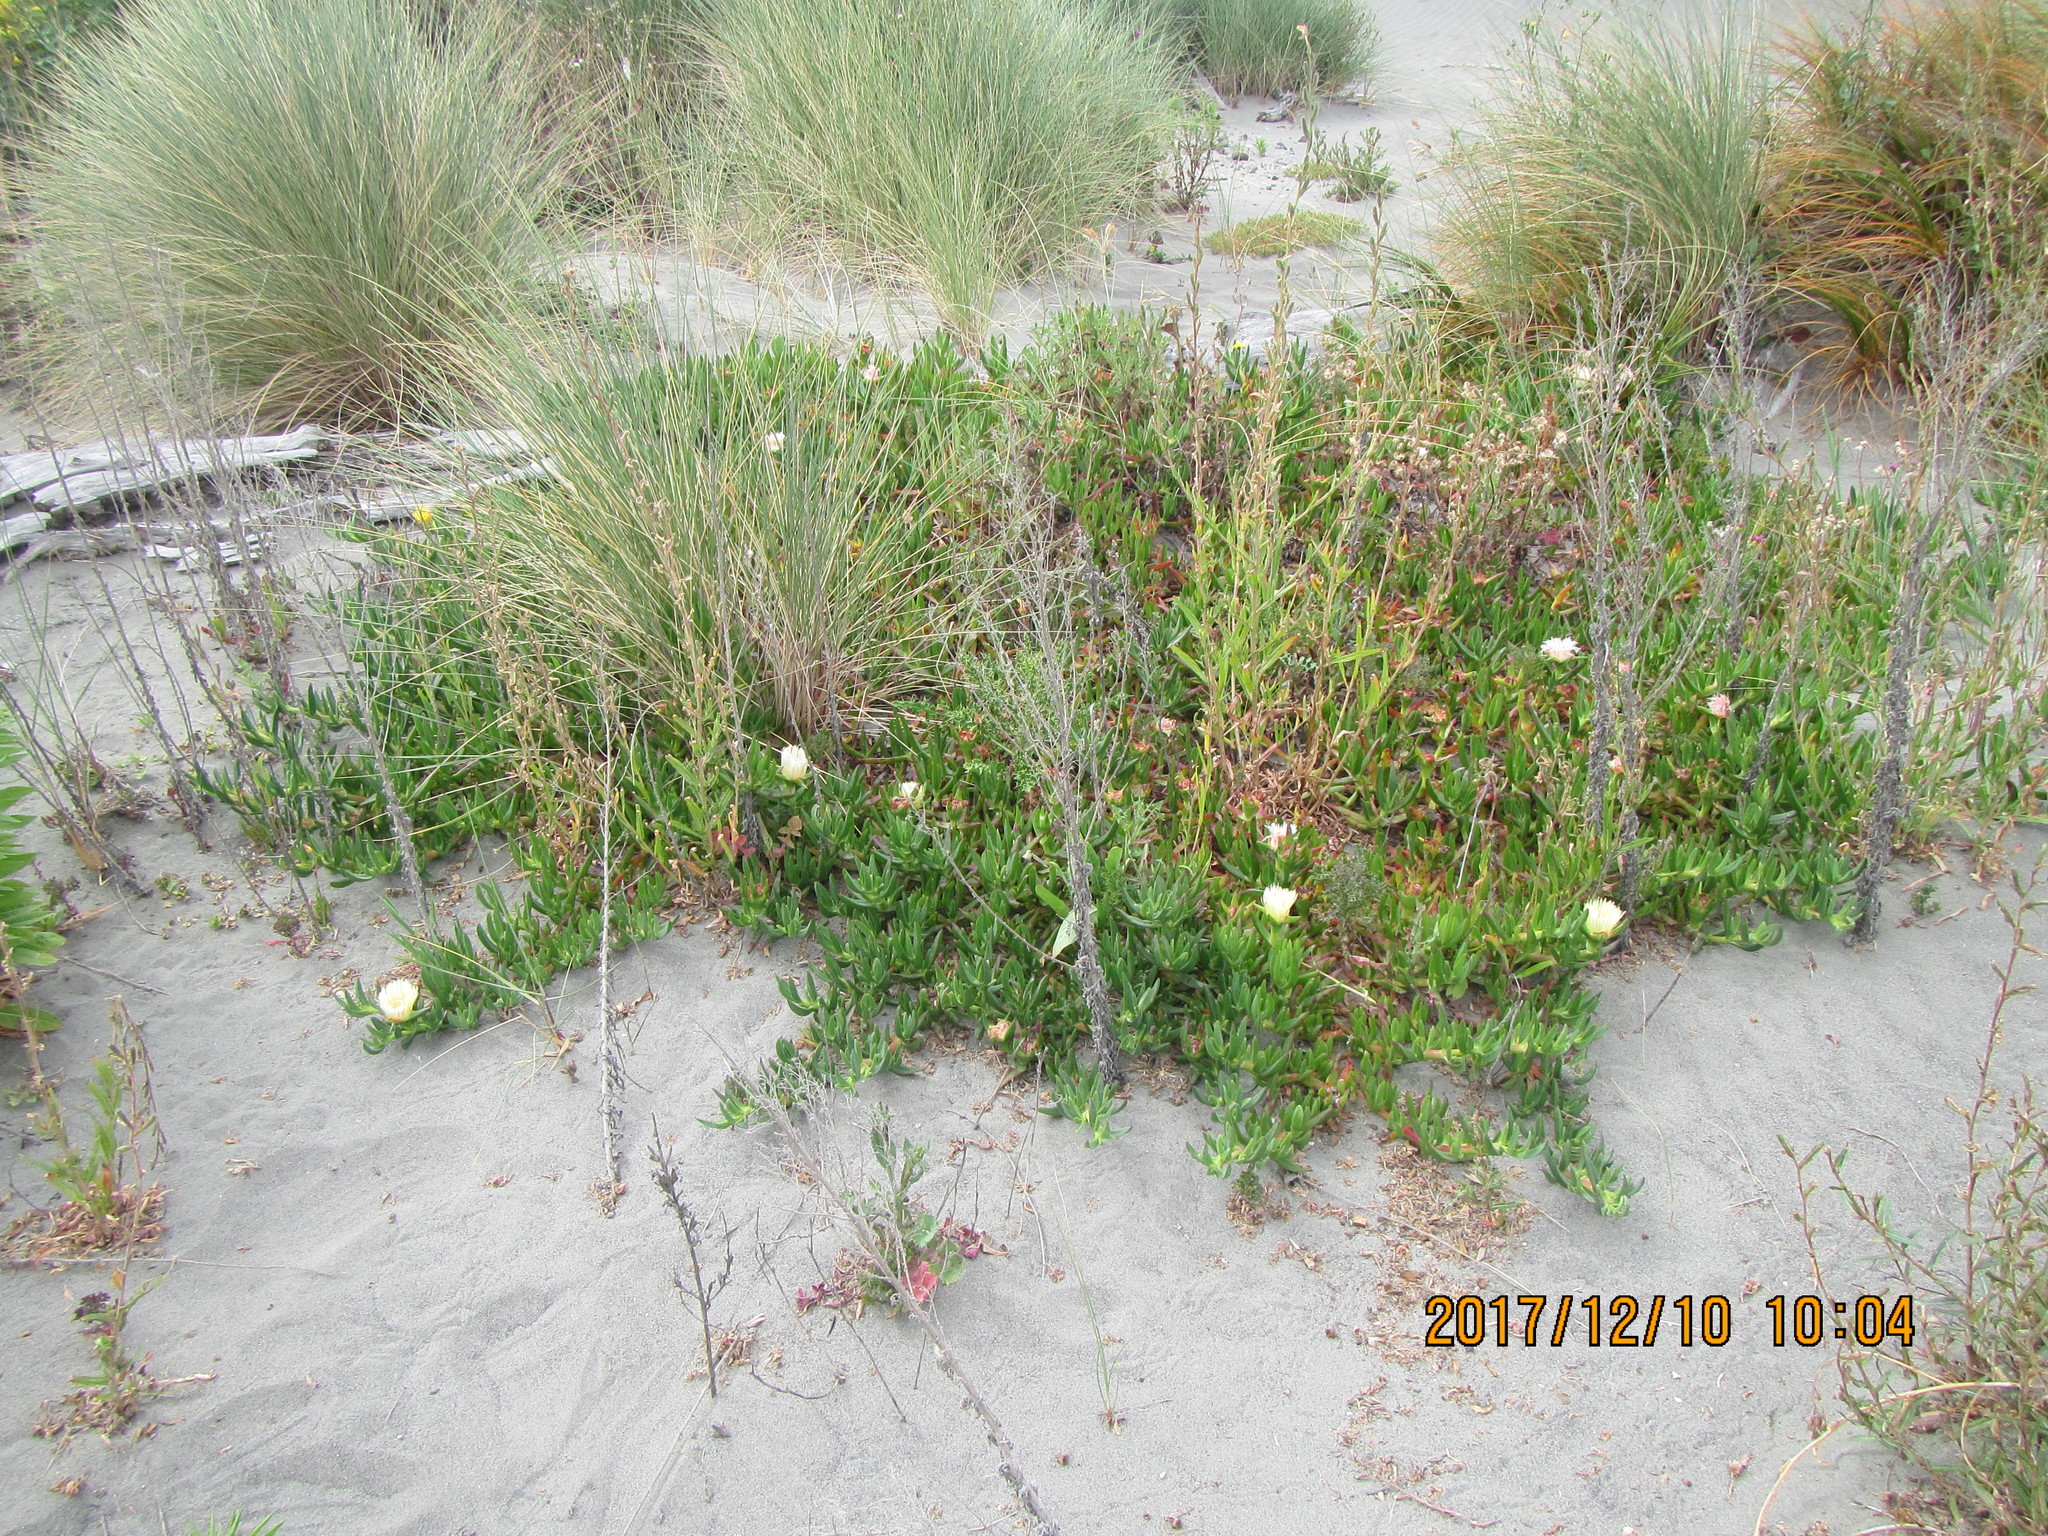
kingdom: Plantae
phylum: Tracheophyta
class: Magnoliopsida
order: Caryophyllales
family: Aizoaceae
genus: Carpobrotus
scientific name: Carpobrotus edulis
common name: Hottentot-fig
